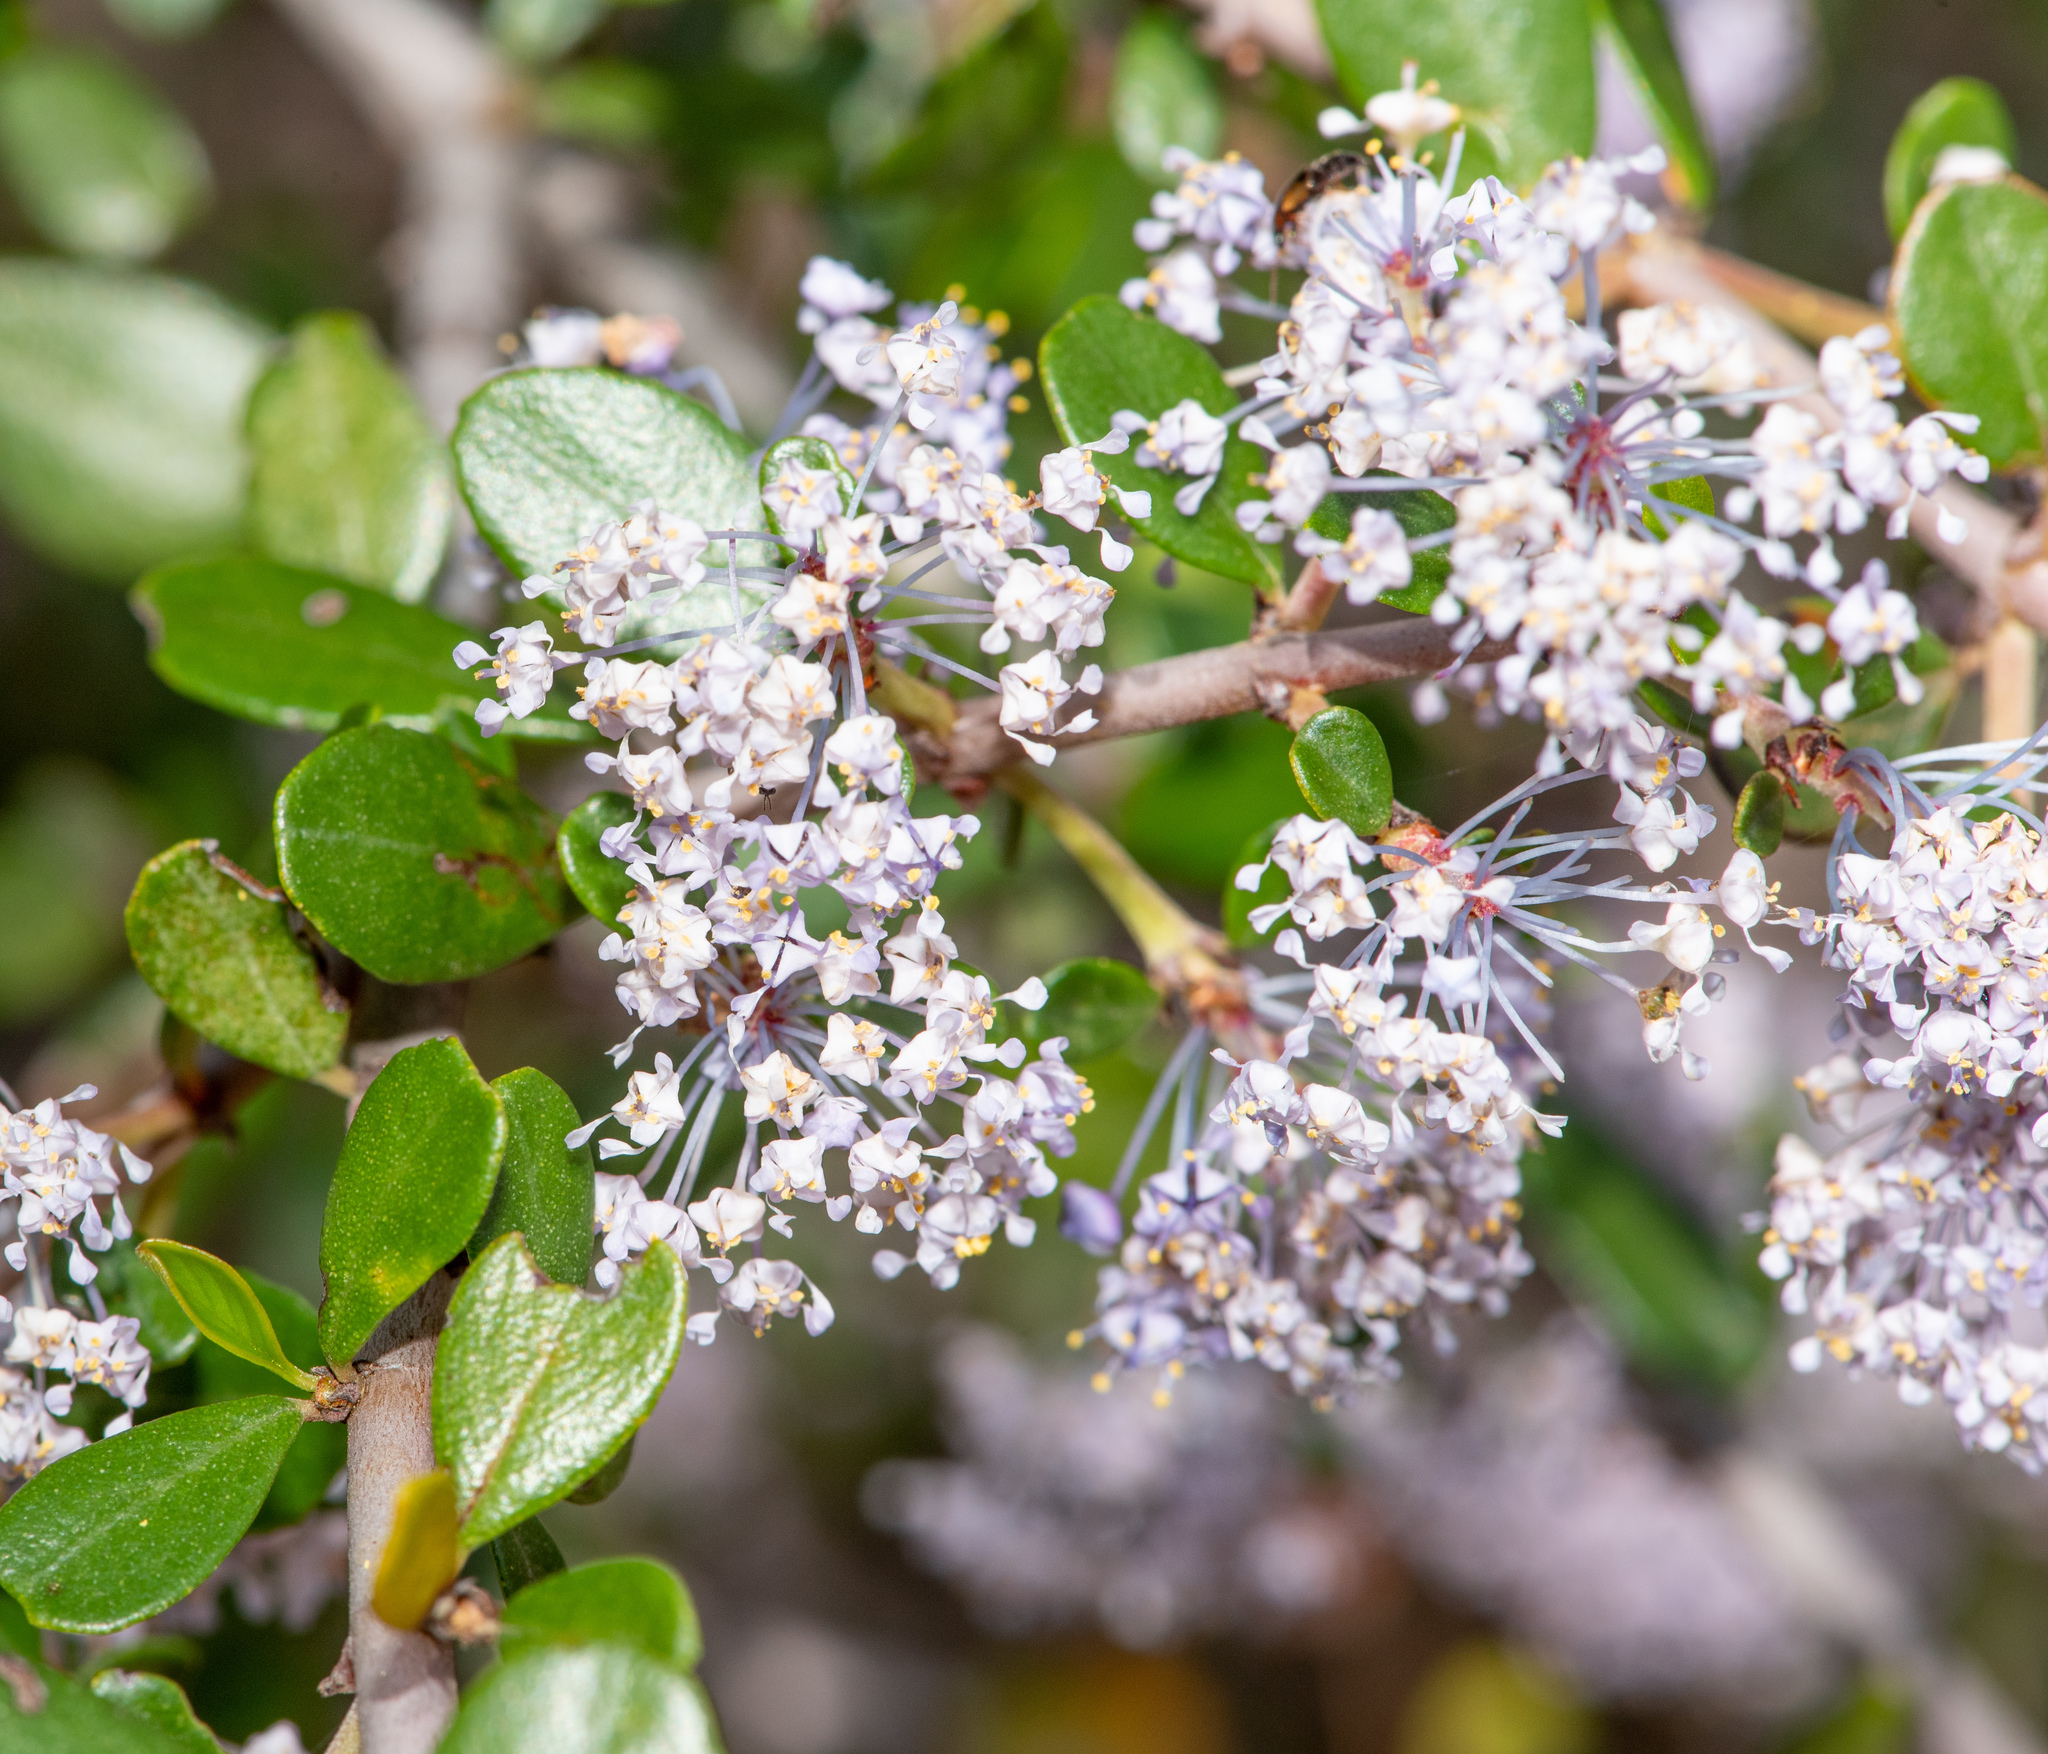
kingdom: Plantae
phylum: Tracheophyta
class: Magnoliopsida
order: Rosales
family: Rhamnaceae
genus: Ceanothus
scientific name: Ceanothus cuneatus
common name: Cuneate ceanothus
